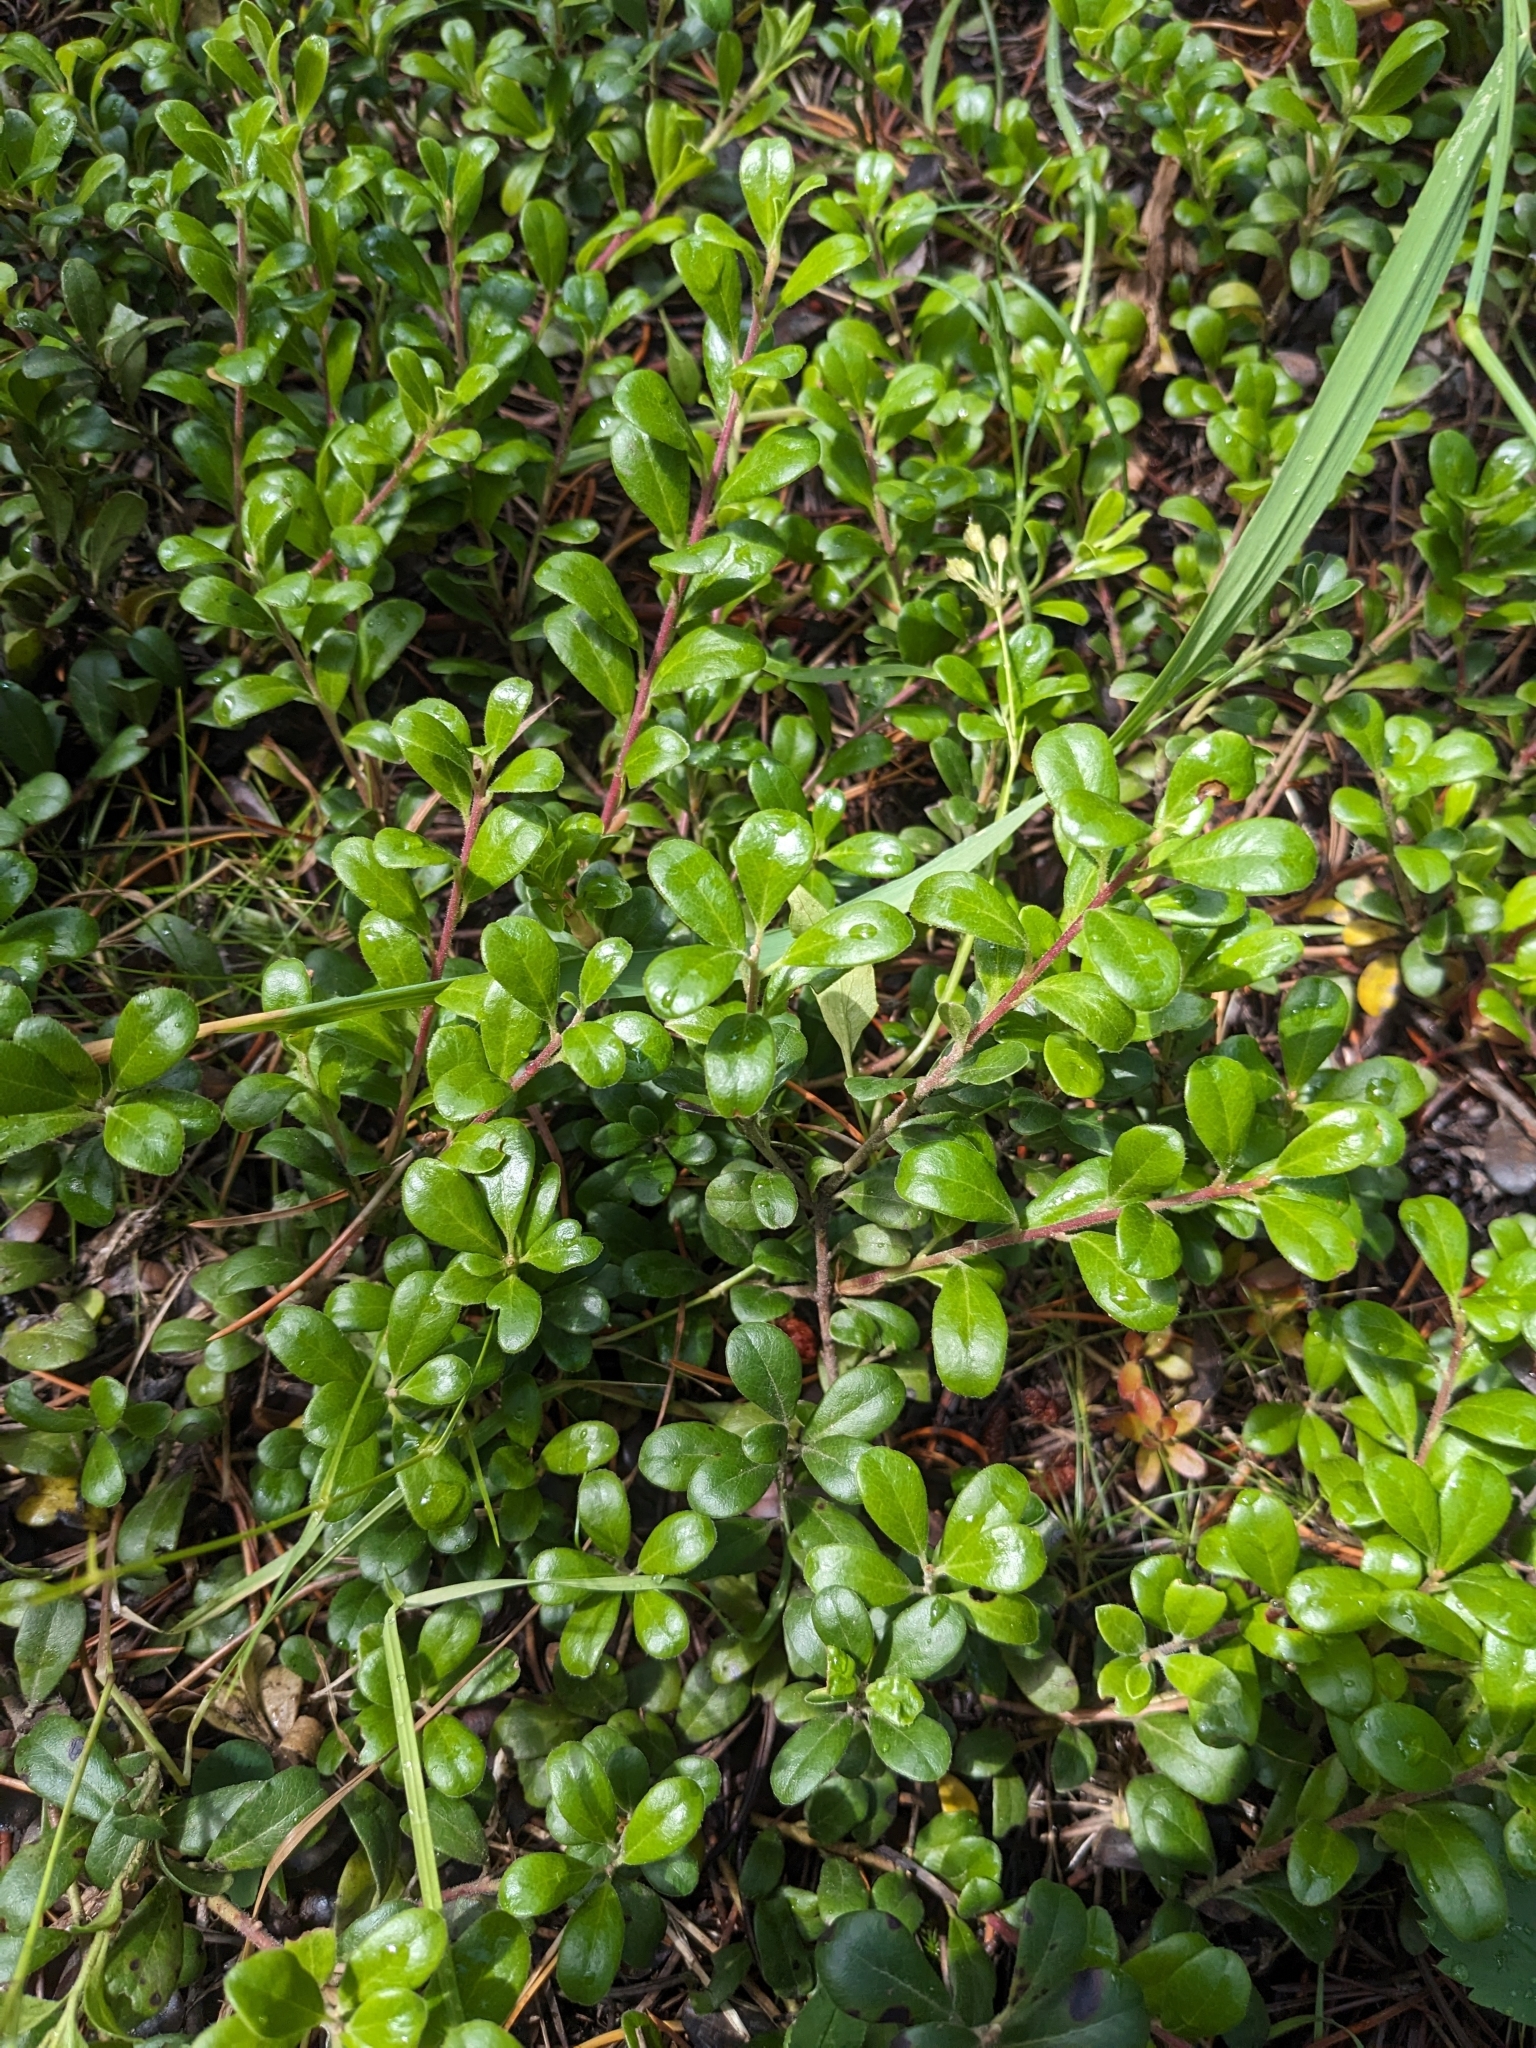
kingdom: Plantae
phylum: Tracheophyta
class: Magnoliopsida
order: Ericales
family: Ericaceae
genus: Arctostaphylos
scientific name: Arctostaphylos uva-ursi
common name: Bearberry
